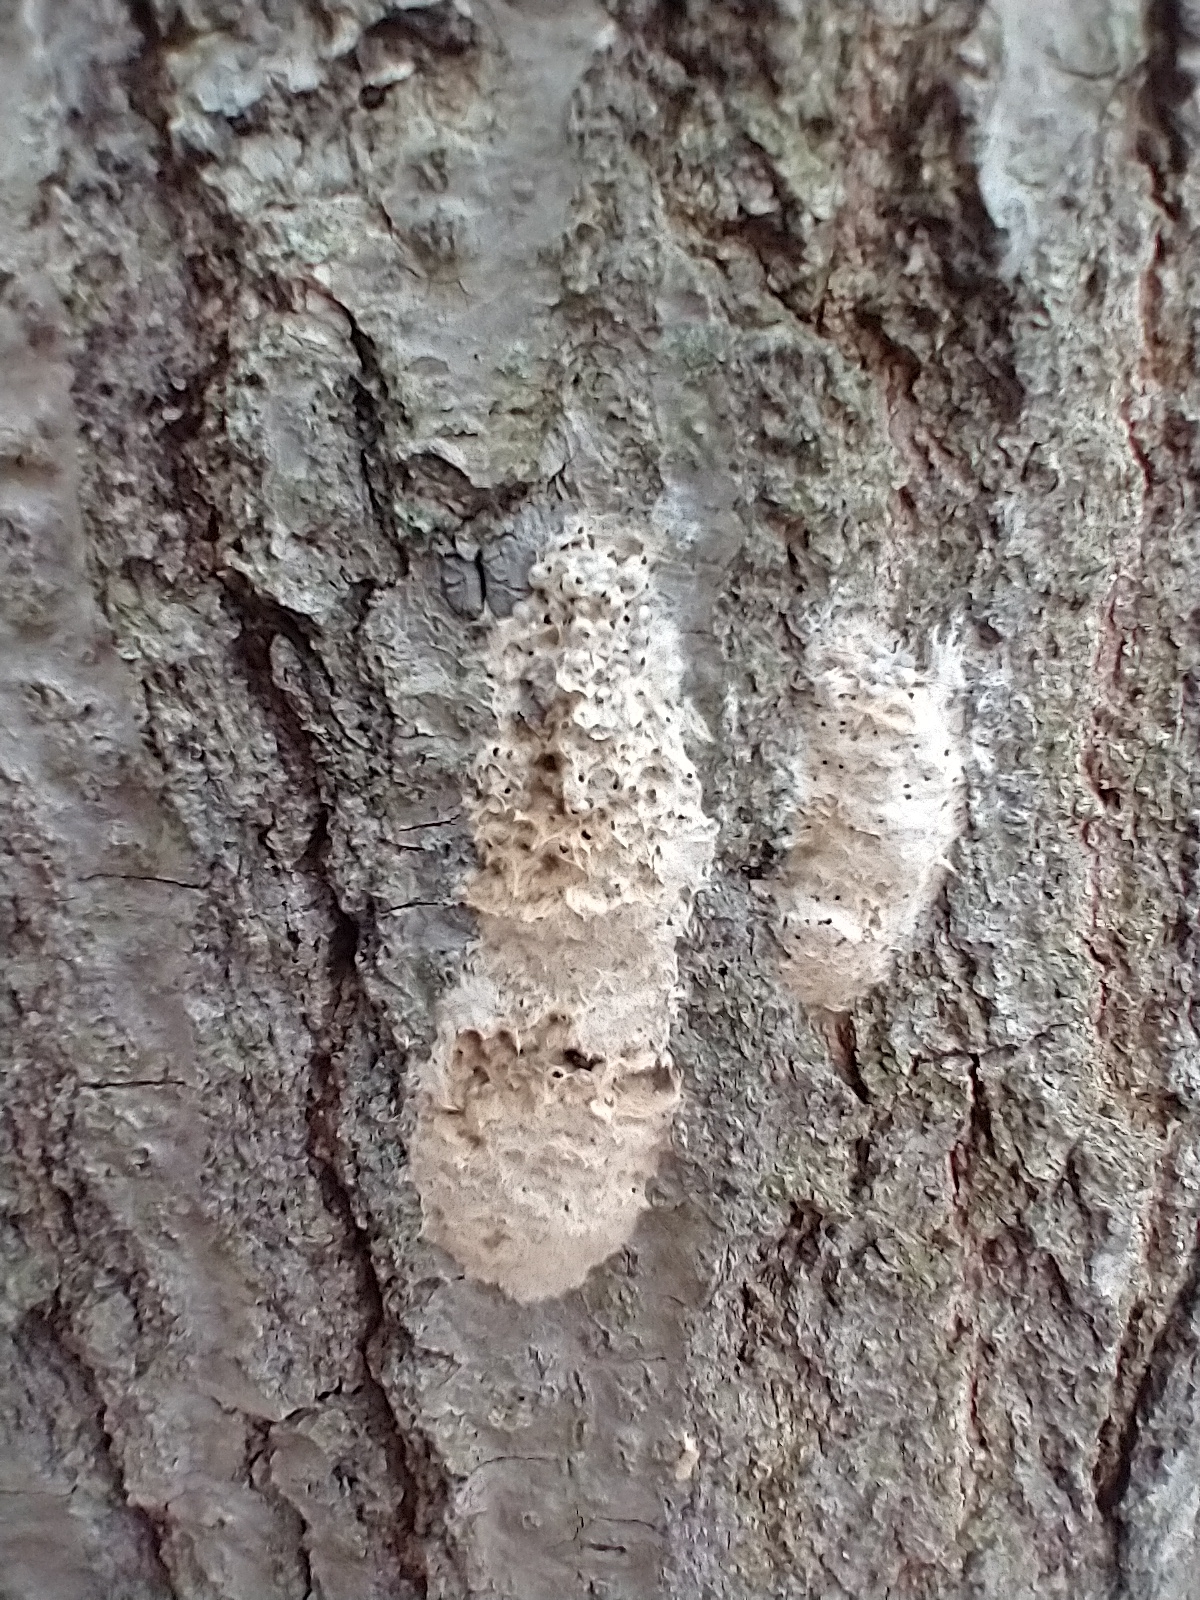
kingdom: Animalia
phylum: Arthropoda
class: Insecta
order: Lepidoptera
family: Erebidae
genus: Lymantria
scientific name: Lymantria dispar
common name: Gypsy moth
